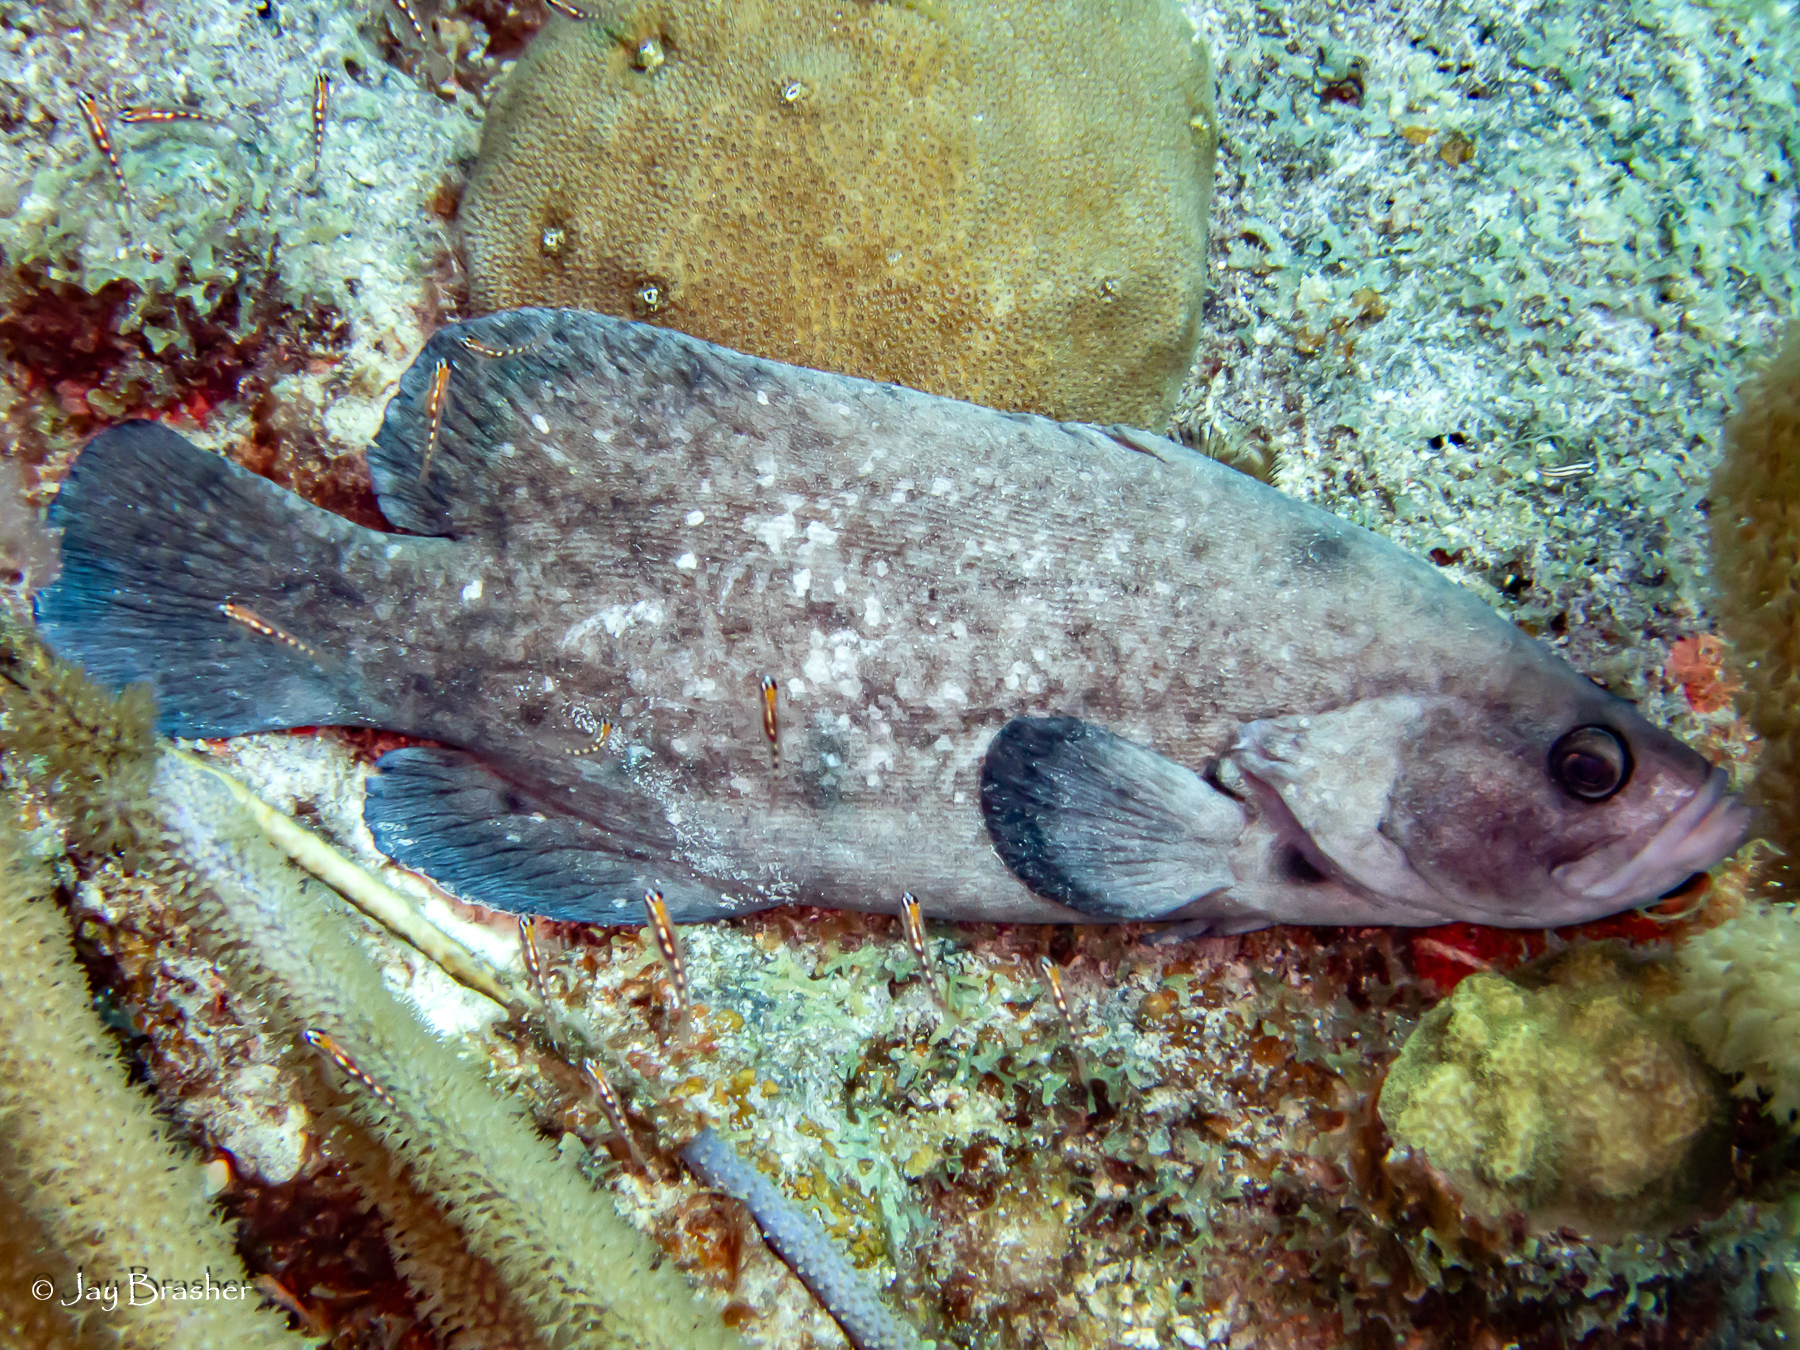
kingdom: Animalia
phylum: Chordata
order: Perciformes
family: Serranidae
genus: Rypticus
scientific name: Rypticus saponaceus
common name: Soapfish
